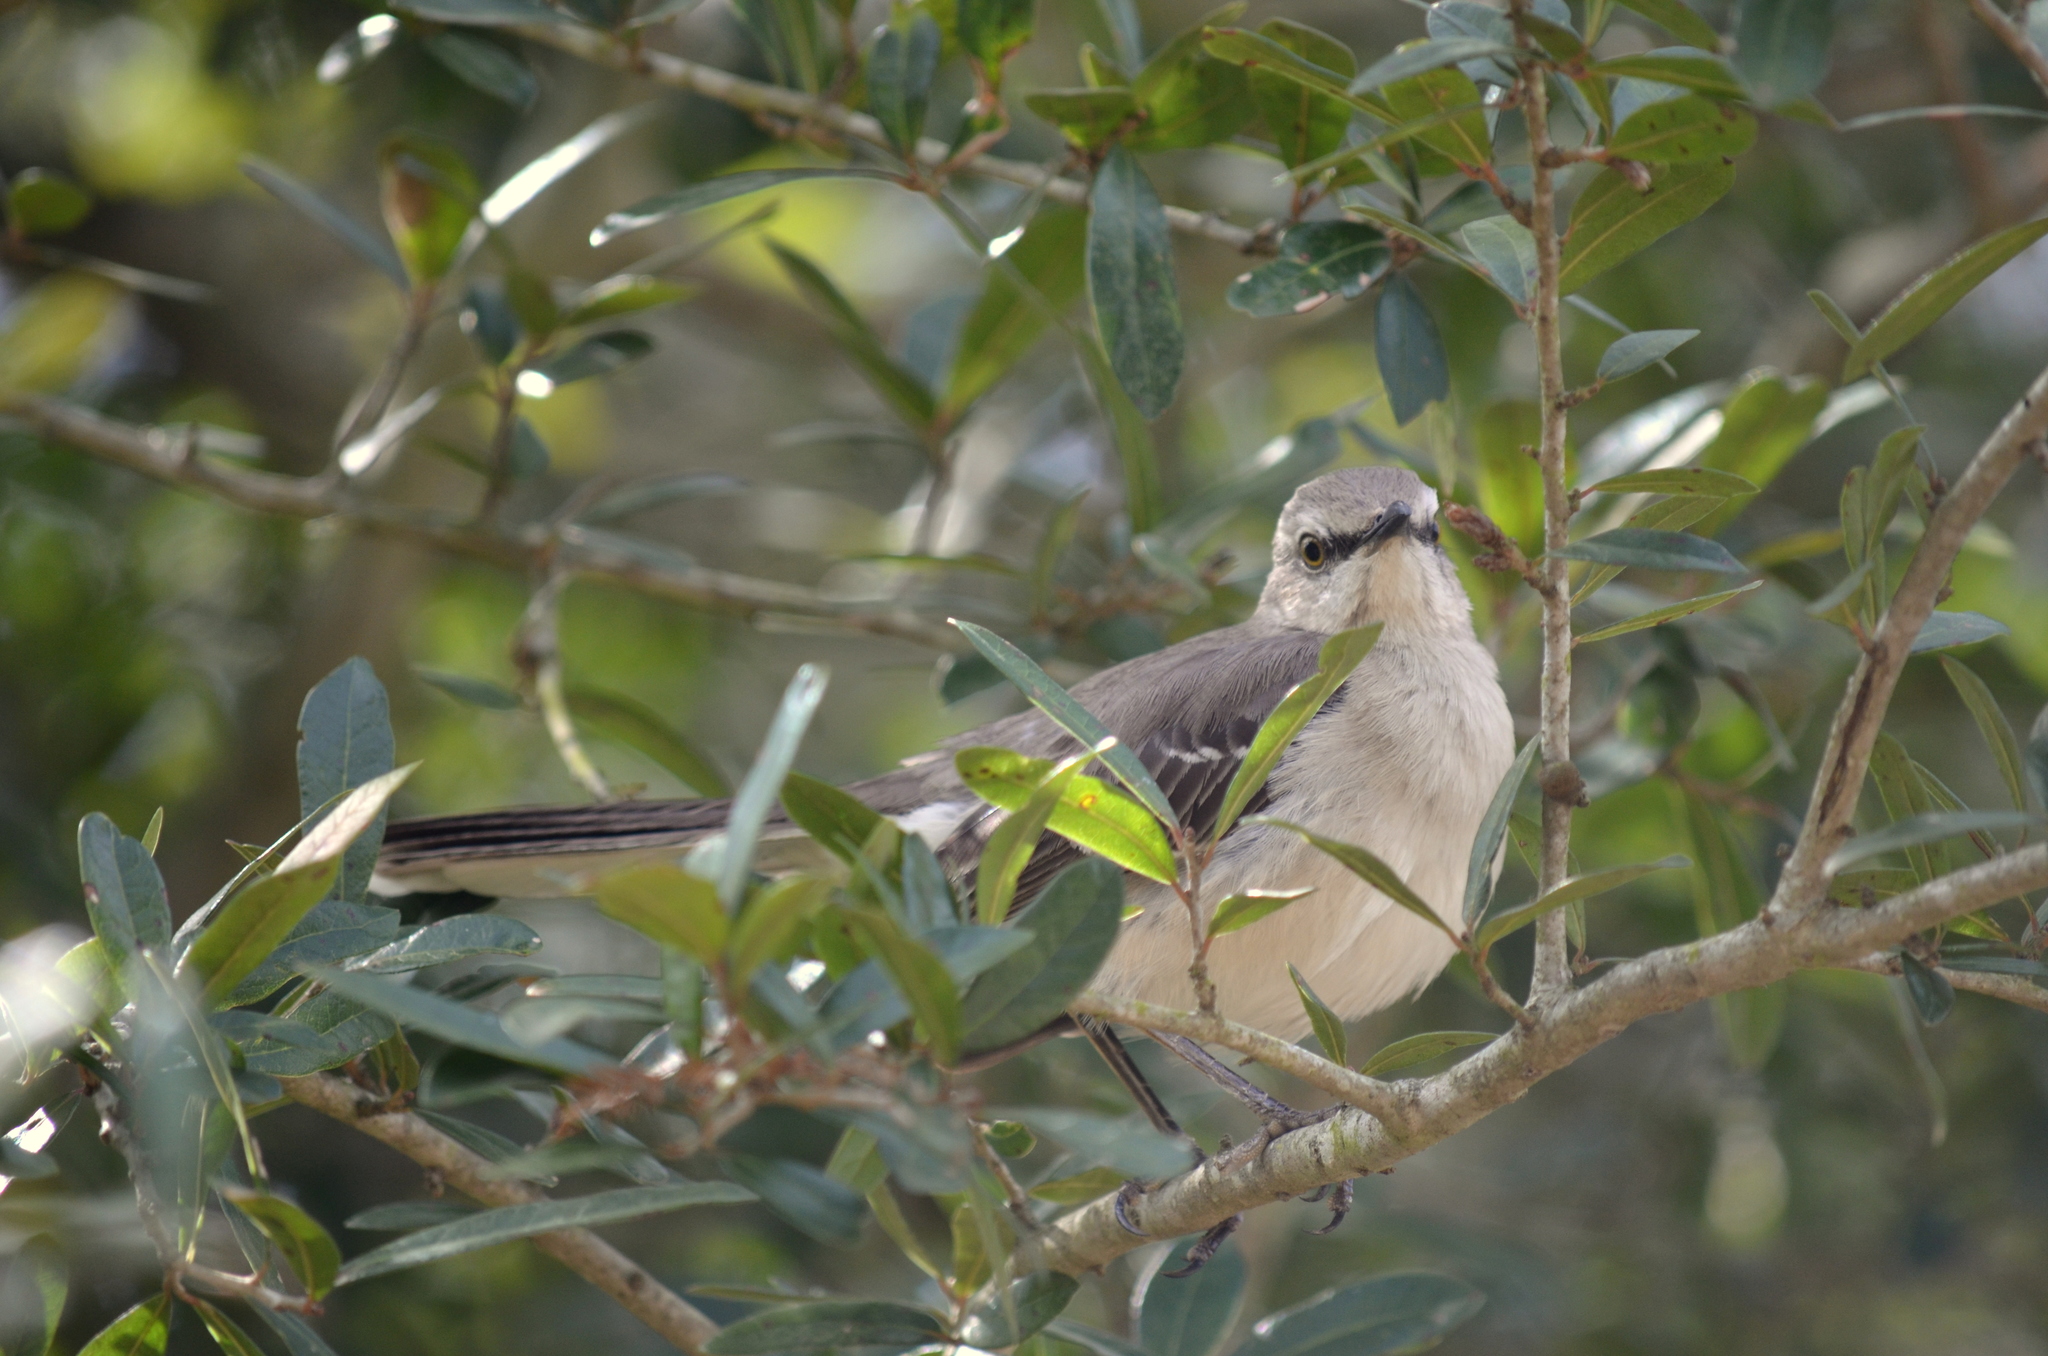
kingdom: Animalia
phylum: Chordata
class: Aves
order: Passeriformes
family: Mimidae
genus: Mimus
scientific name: Mimus polyglottos
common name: Northern mockingbird
